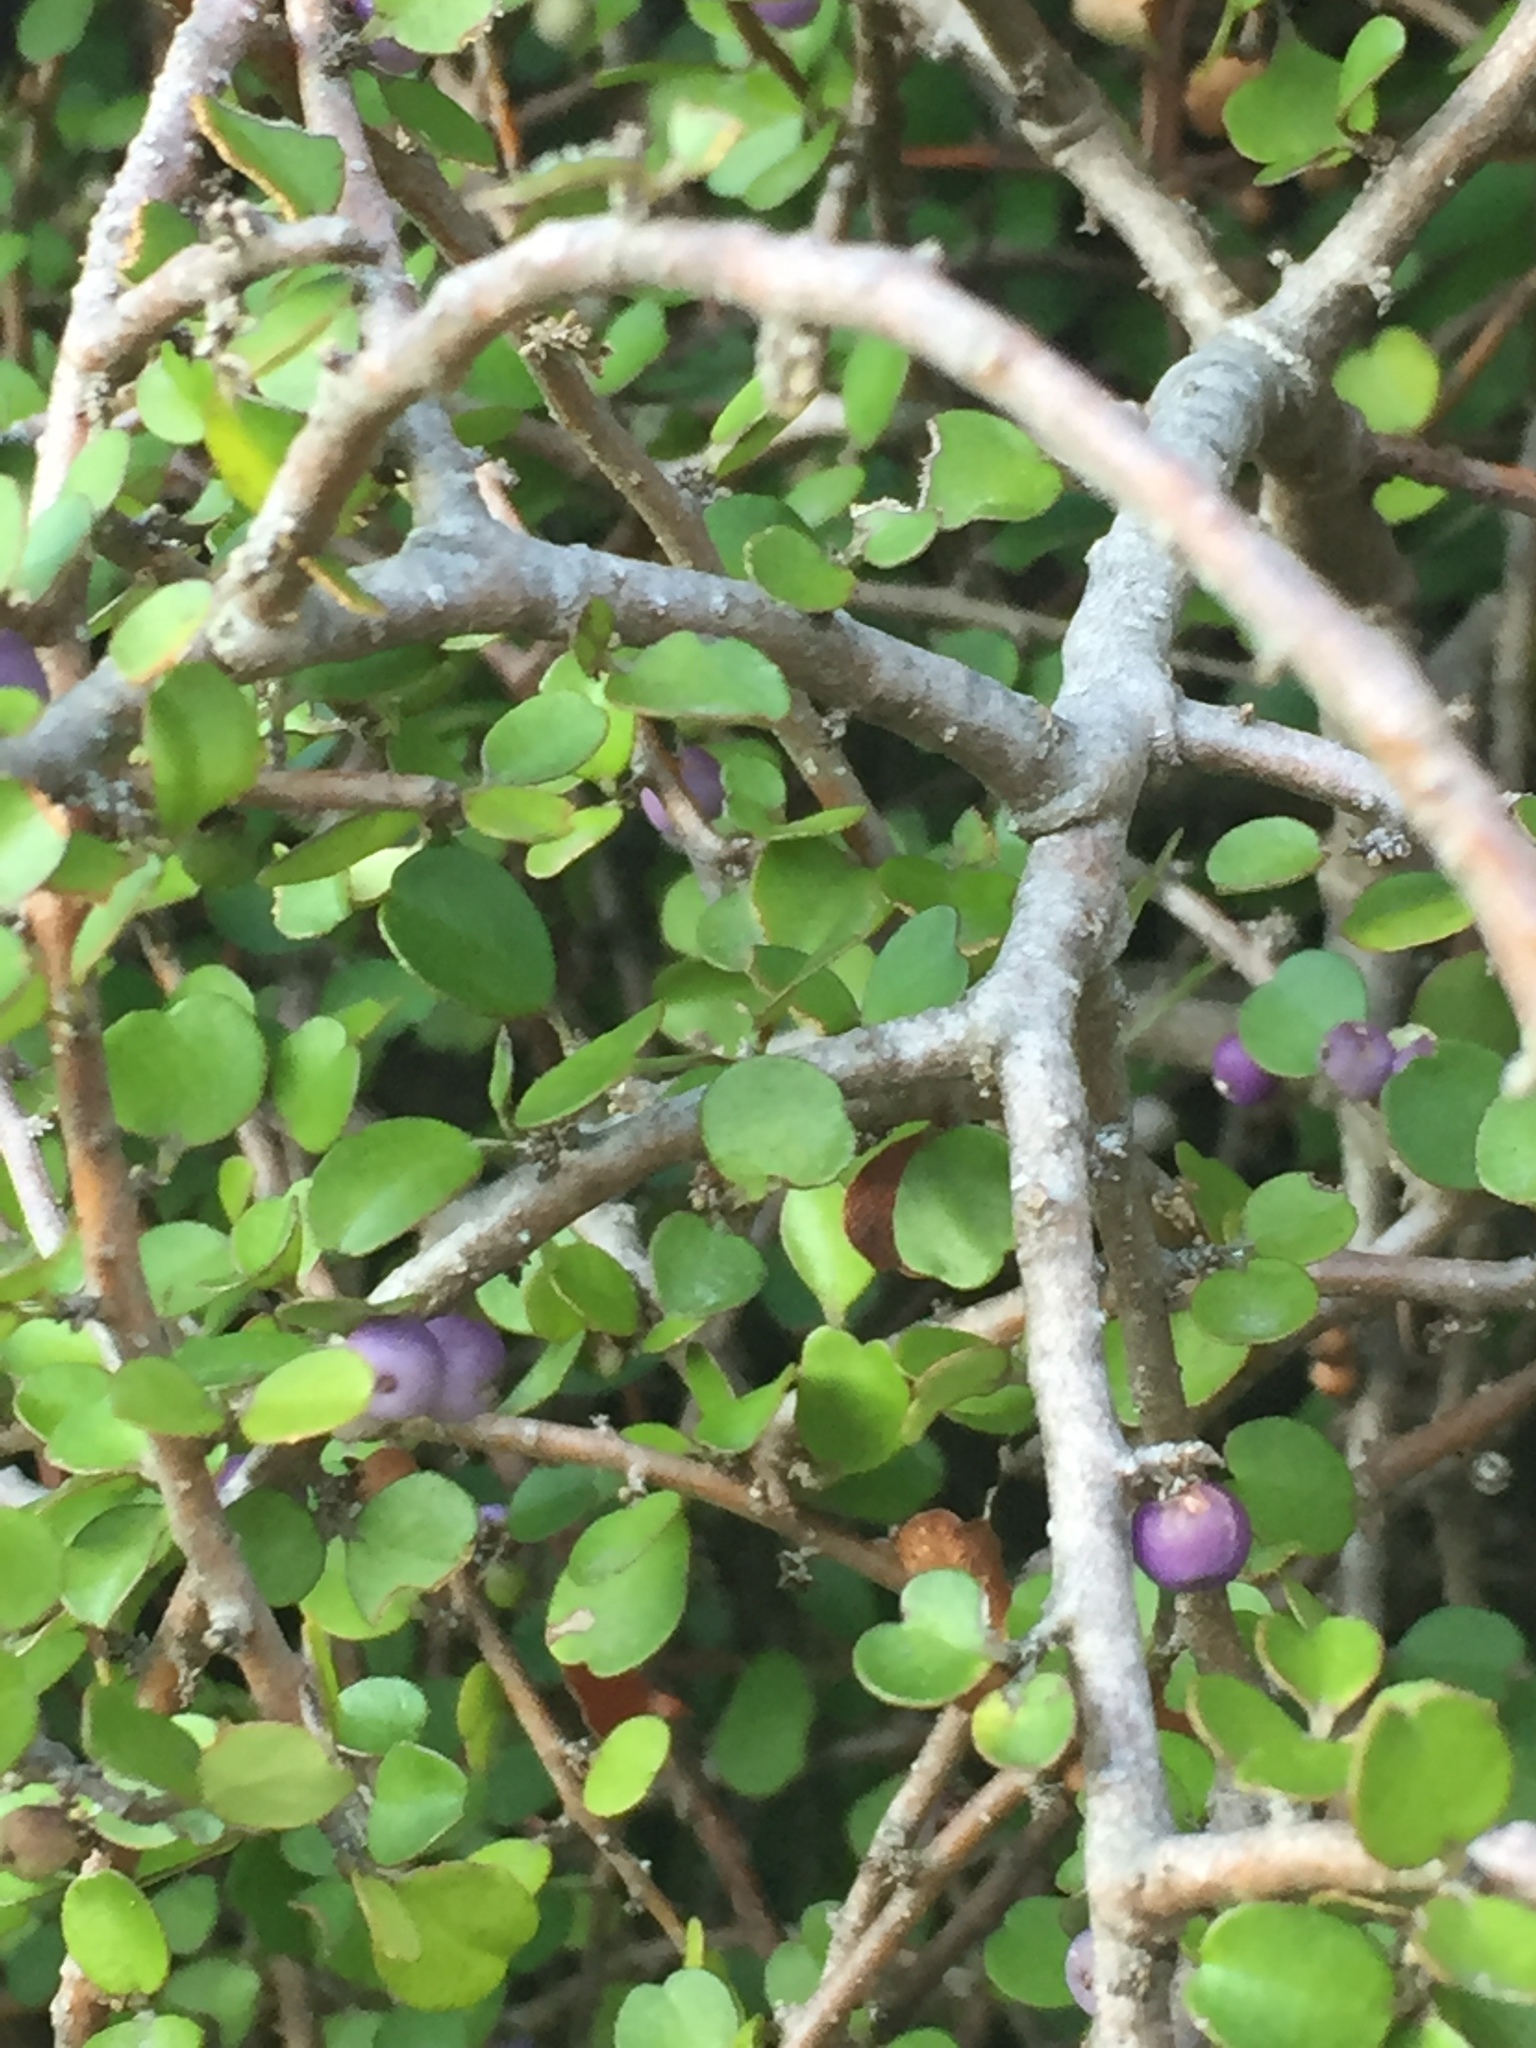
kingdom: Plantae
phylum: Tracheophyta
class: Magnoliopsida
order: Ericales
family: Primulaceae
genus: Myrsine
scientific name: Myrsine divaricata
